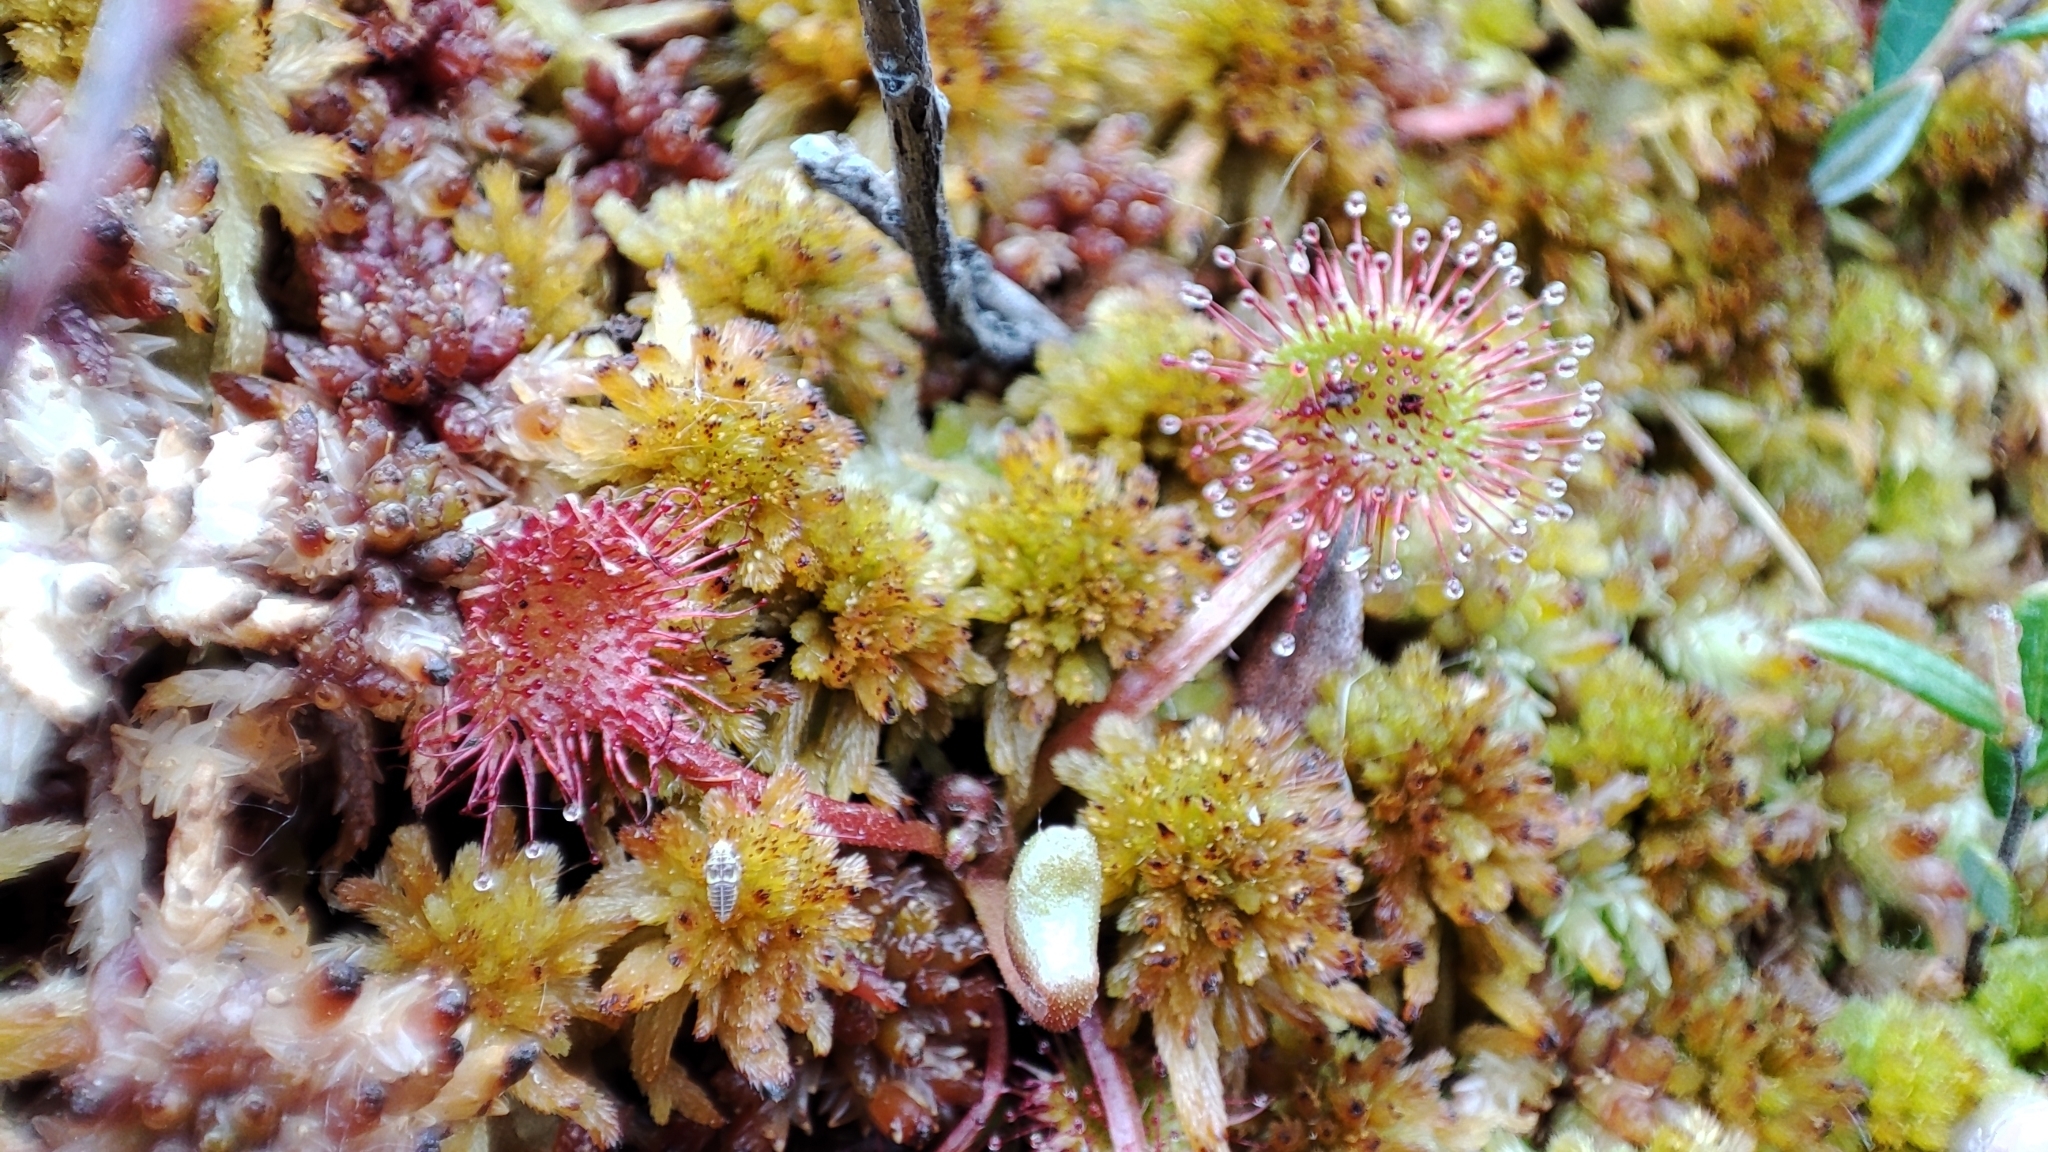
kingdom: Plantae
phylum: Tracheophyta
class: Magnoliopsida
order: Caryophyllales
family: Droseraceae
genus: Drosera
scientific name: Drosera rotundifolia
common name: Round-leaved sundew
